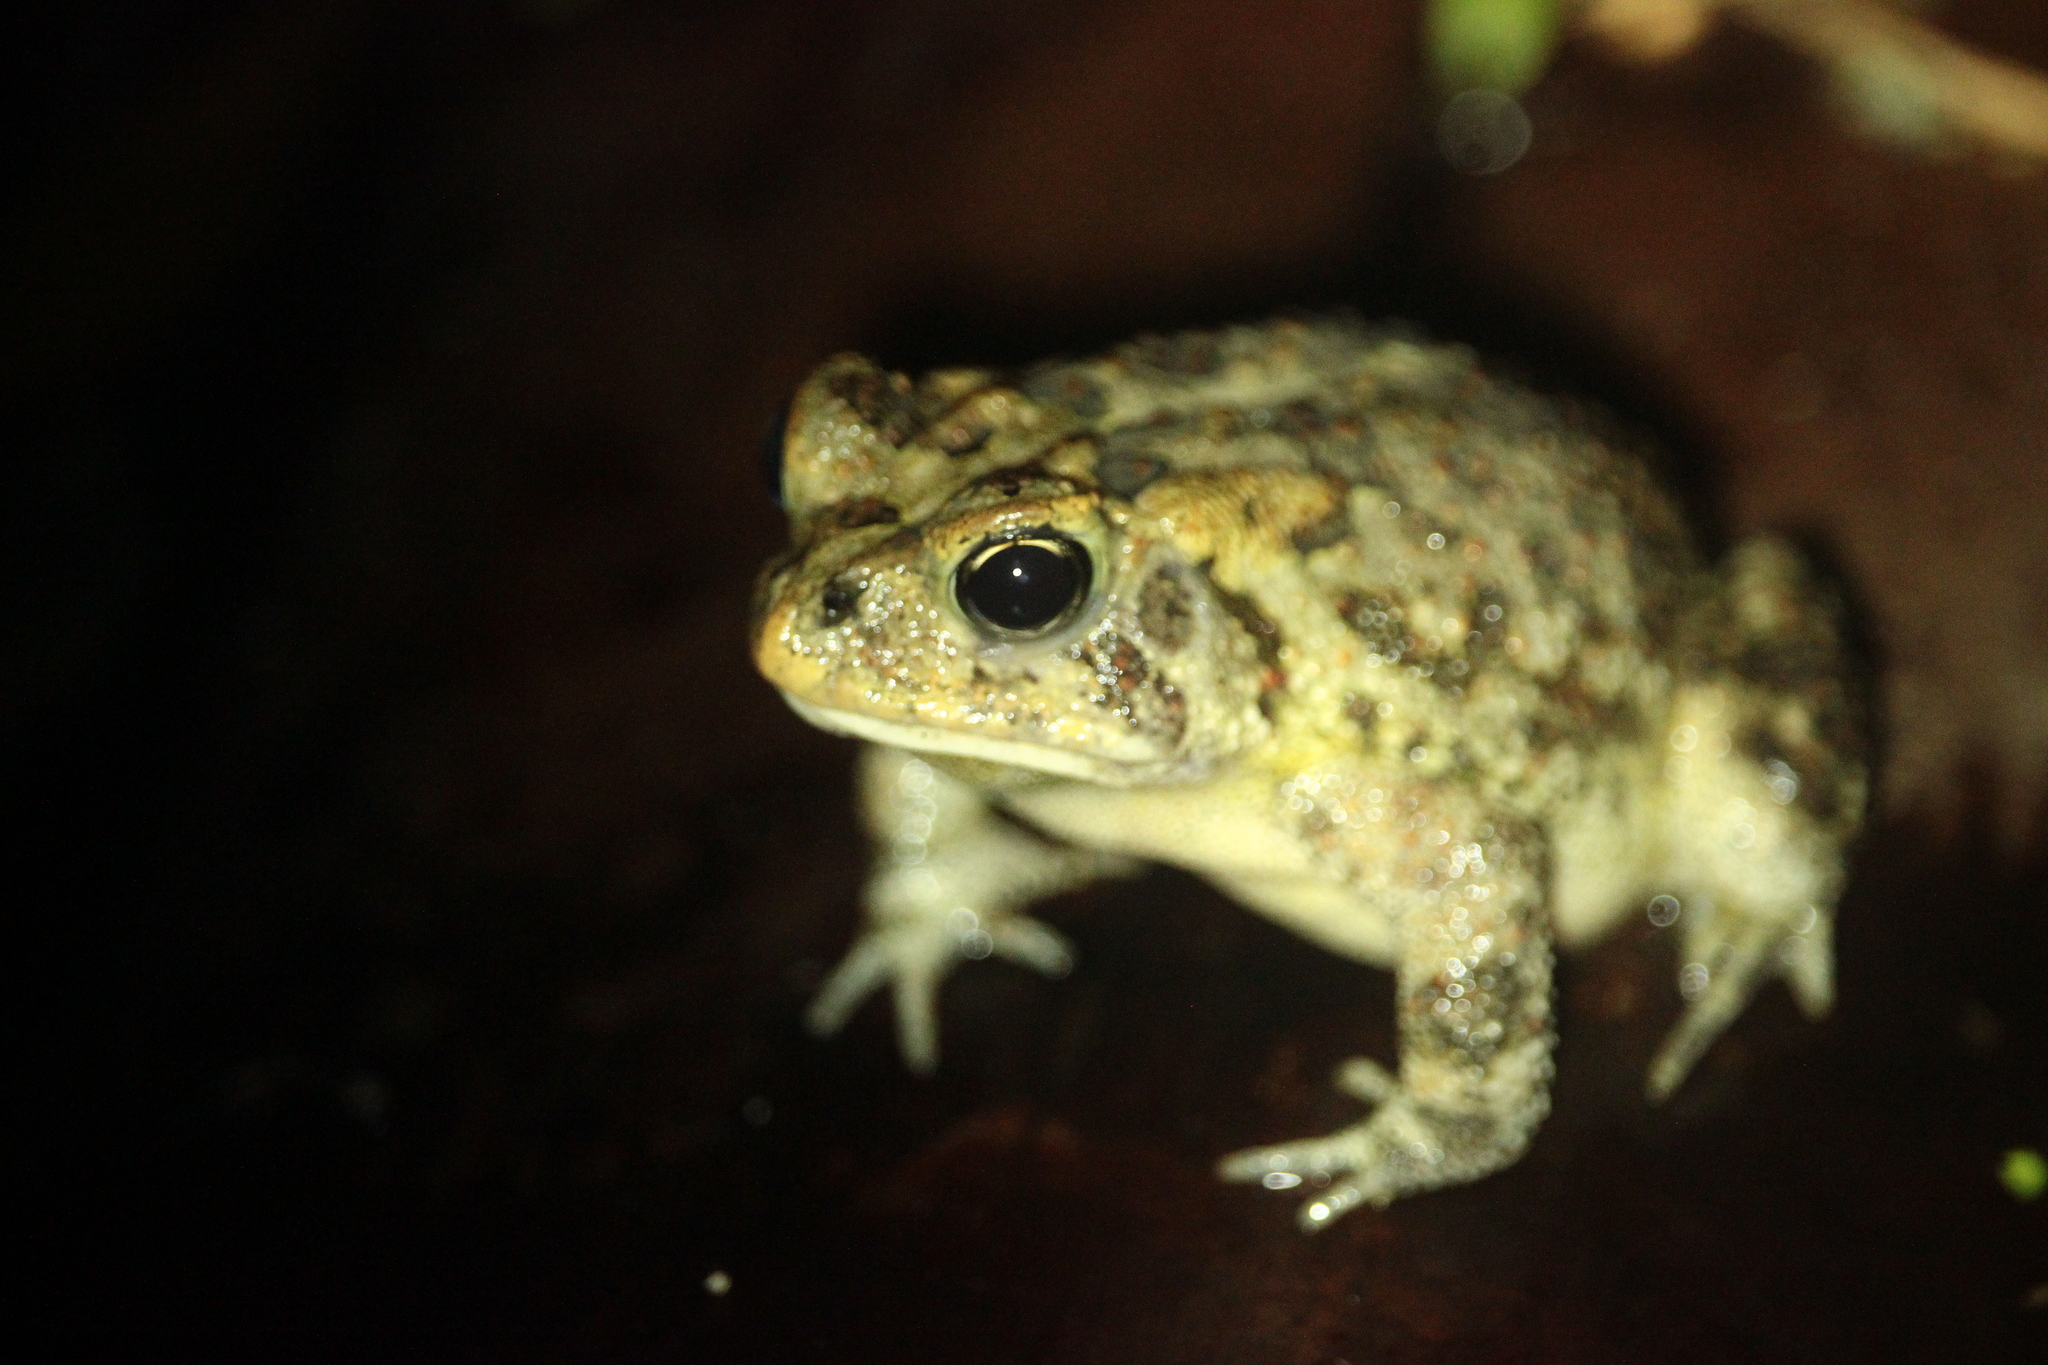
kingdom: Animalia
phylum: Chordata
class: Amphibia
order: Anura
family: Bufonidae
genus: Anaxyrus
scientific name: Anaxyrus terrestris
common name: Southern toad
